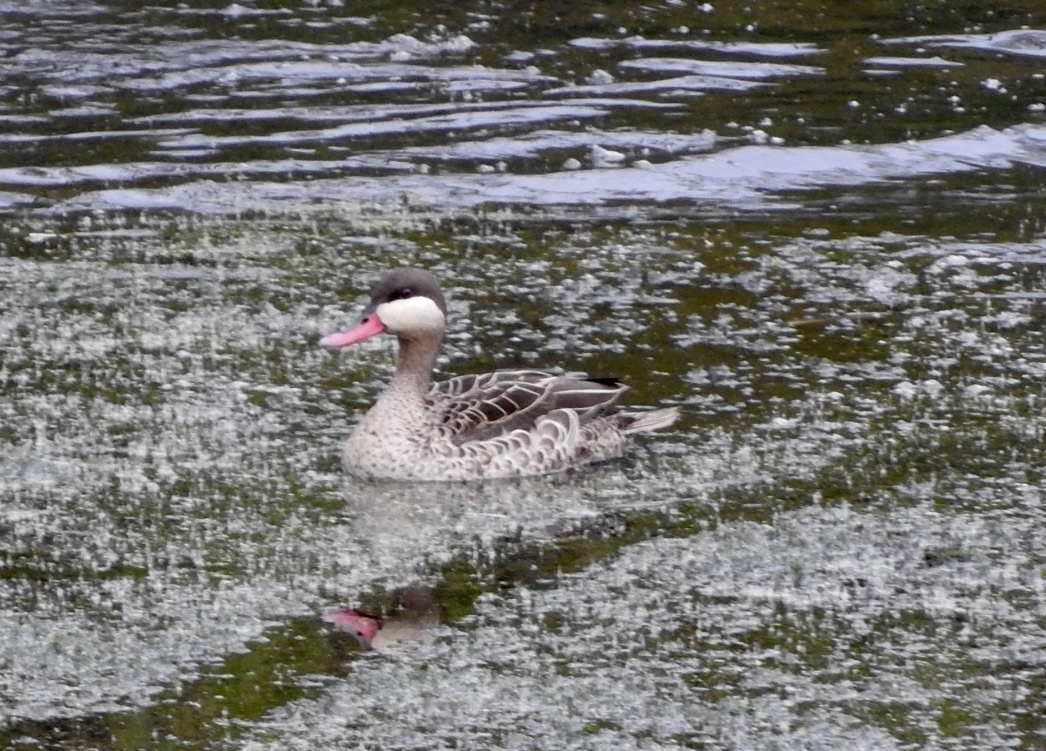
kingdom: Animalia
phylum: Chordata
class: Aves
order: Anseriformes
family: Anatidae
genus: Anas
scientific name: Anas erythrorhyncha
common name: Red-billed teal
